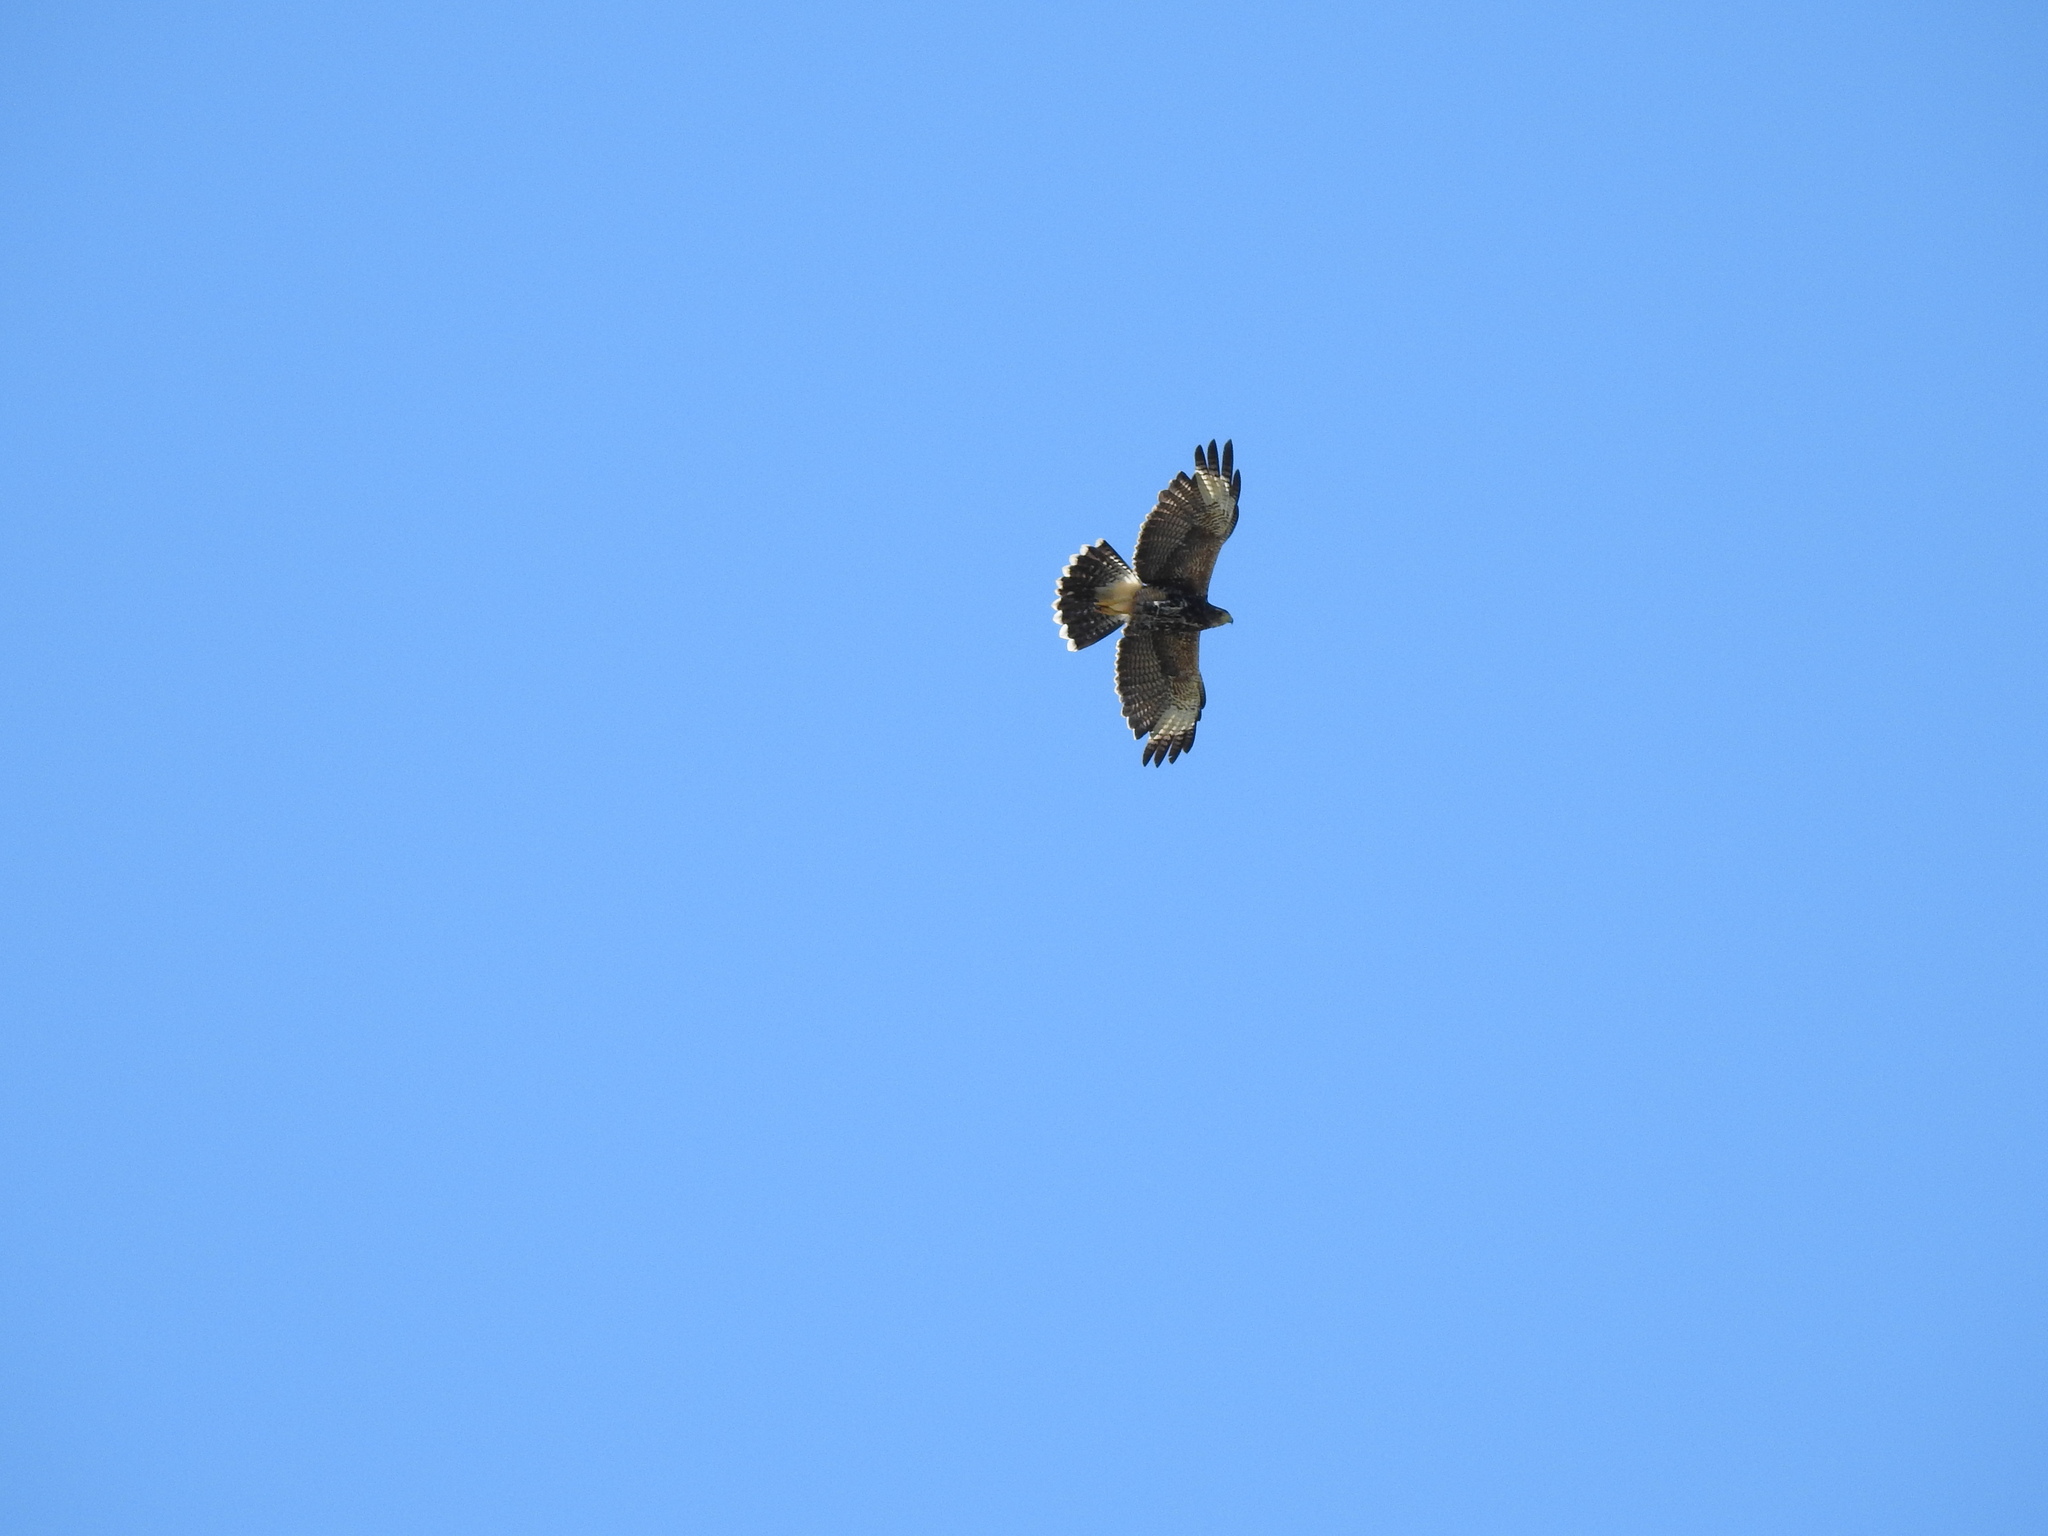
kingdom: Animalia
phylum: Chordata
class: Aves
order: Accipitriformes
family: Accipitridae
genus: Parabuteo
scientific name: Parabuteo unicinctus
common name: Harris's hawk
